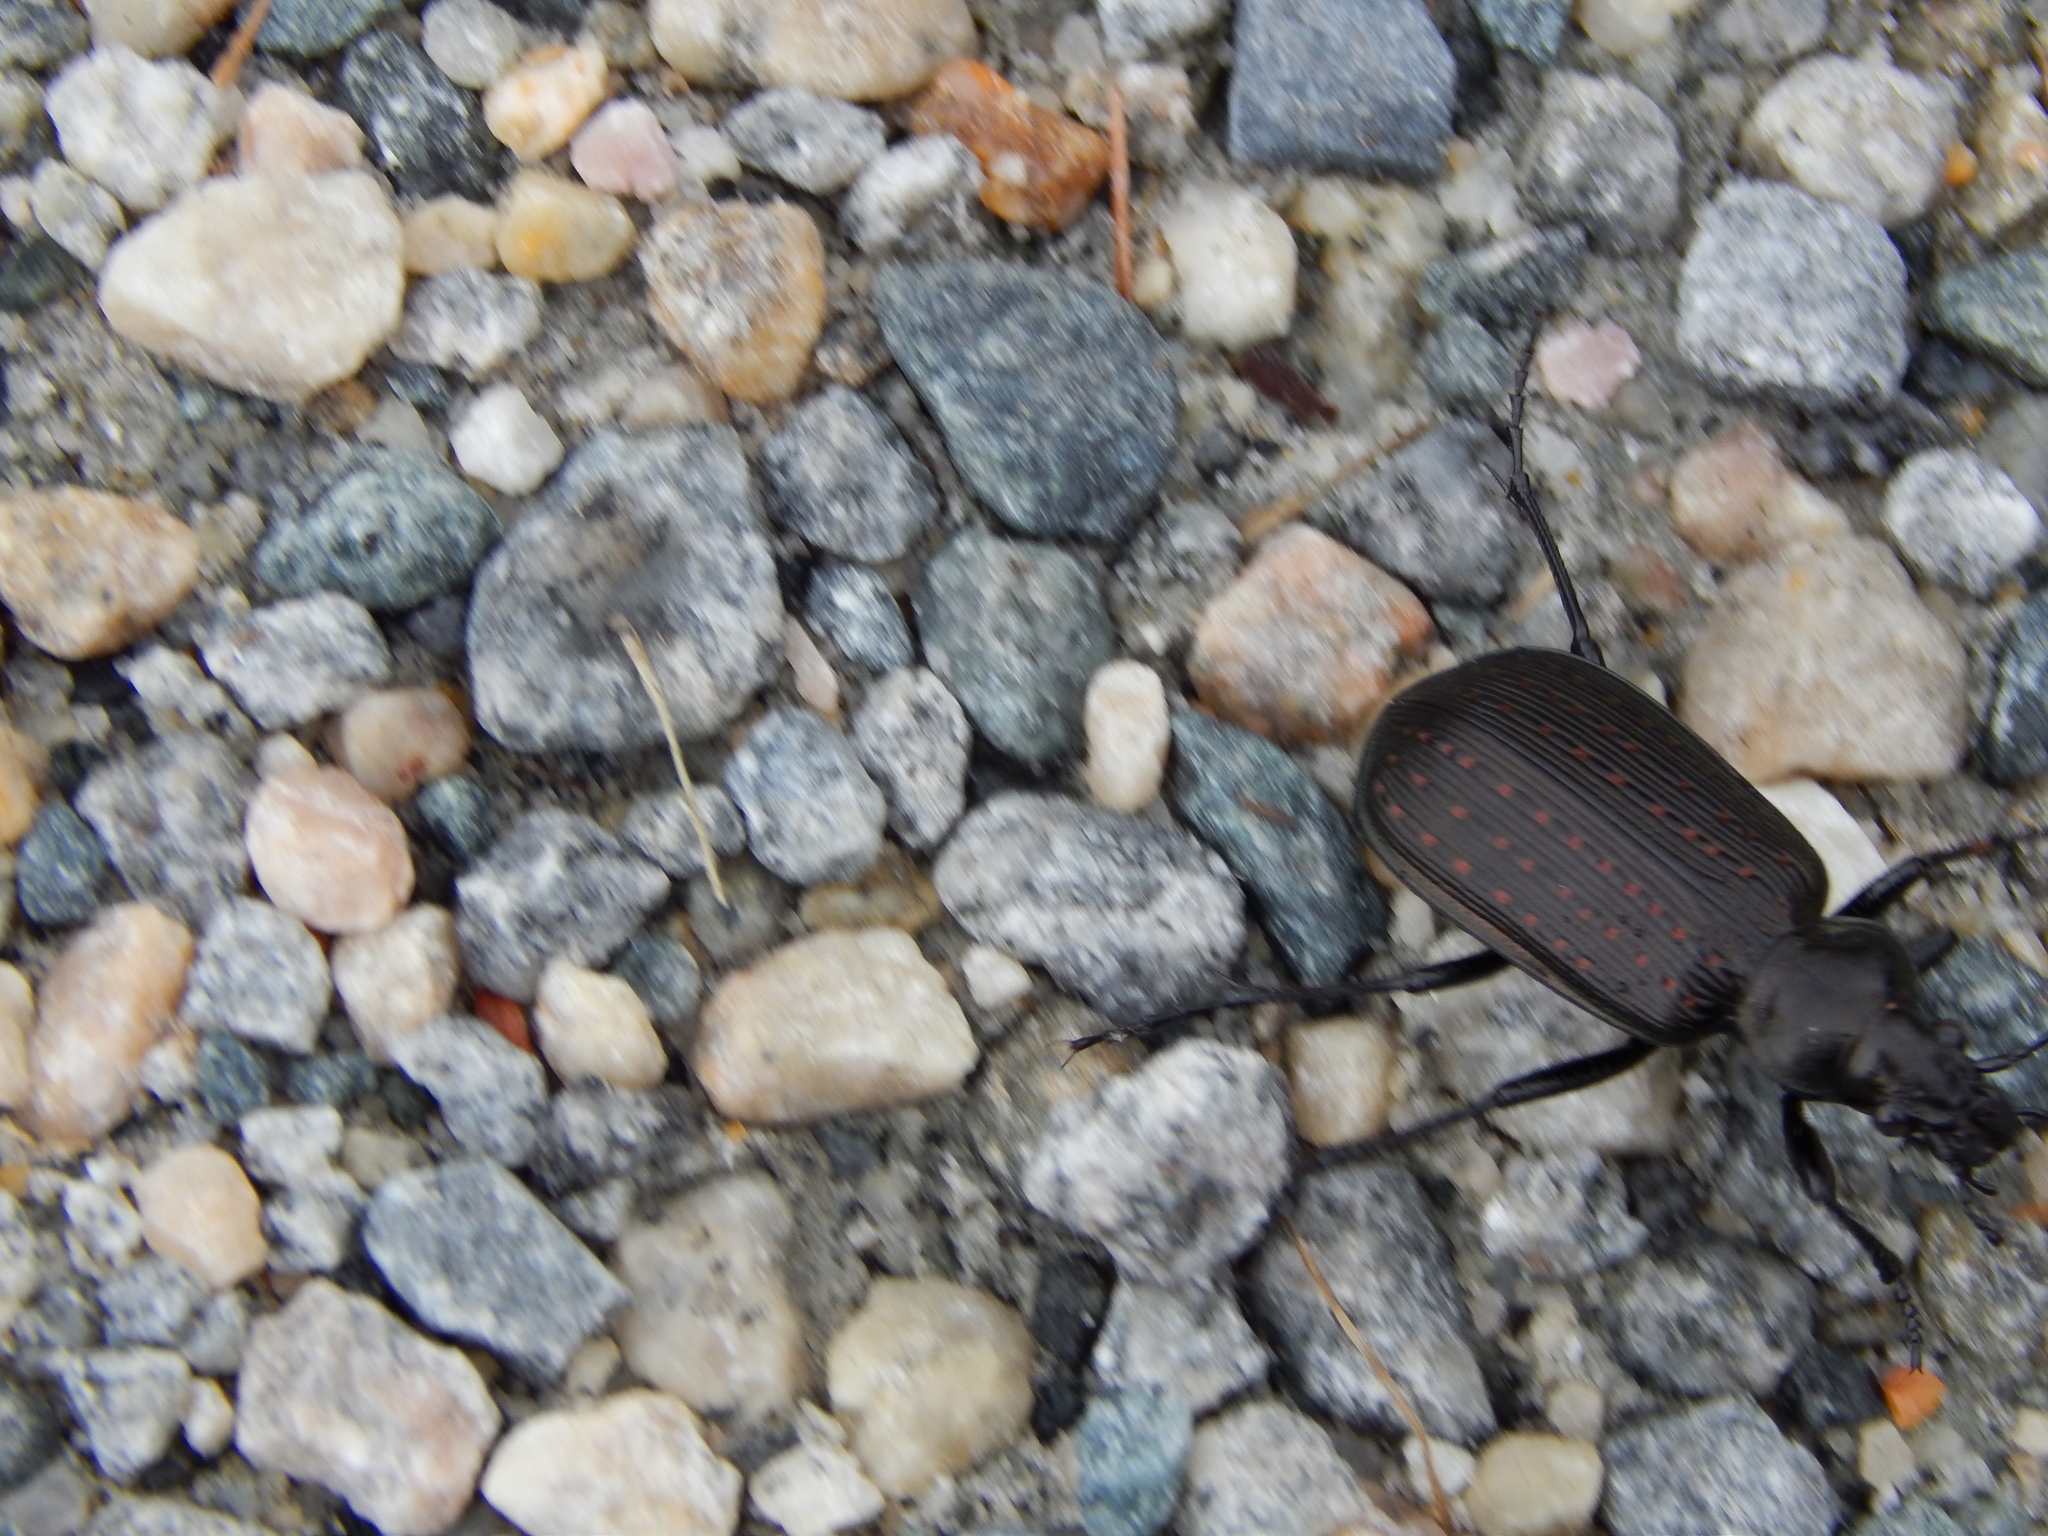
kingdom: Animalia
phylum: Arthropoda
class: Insecta
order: Coleoptera
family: Carabidae
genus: Calosoma
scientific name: Calosoma sayi
